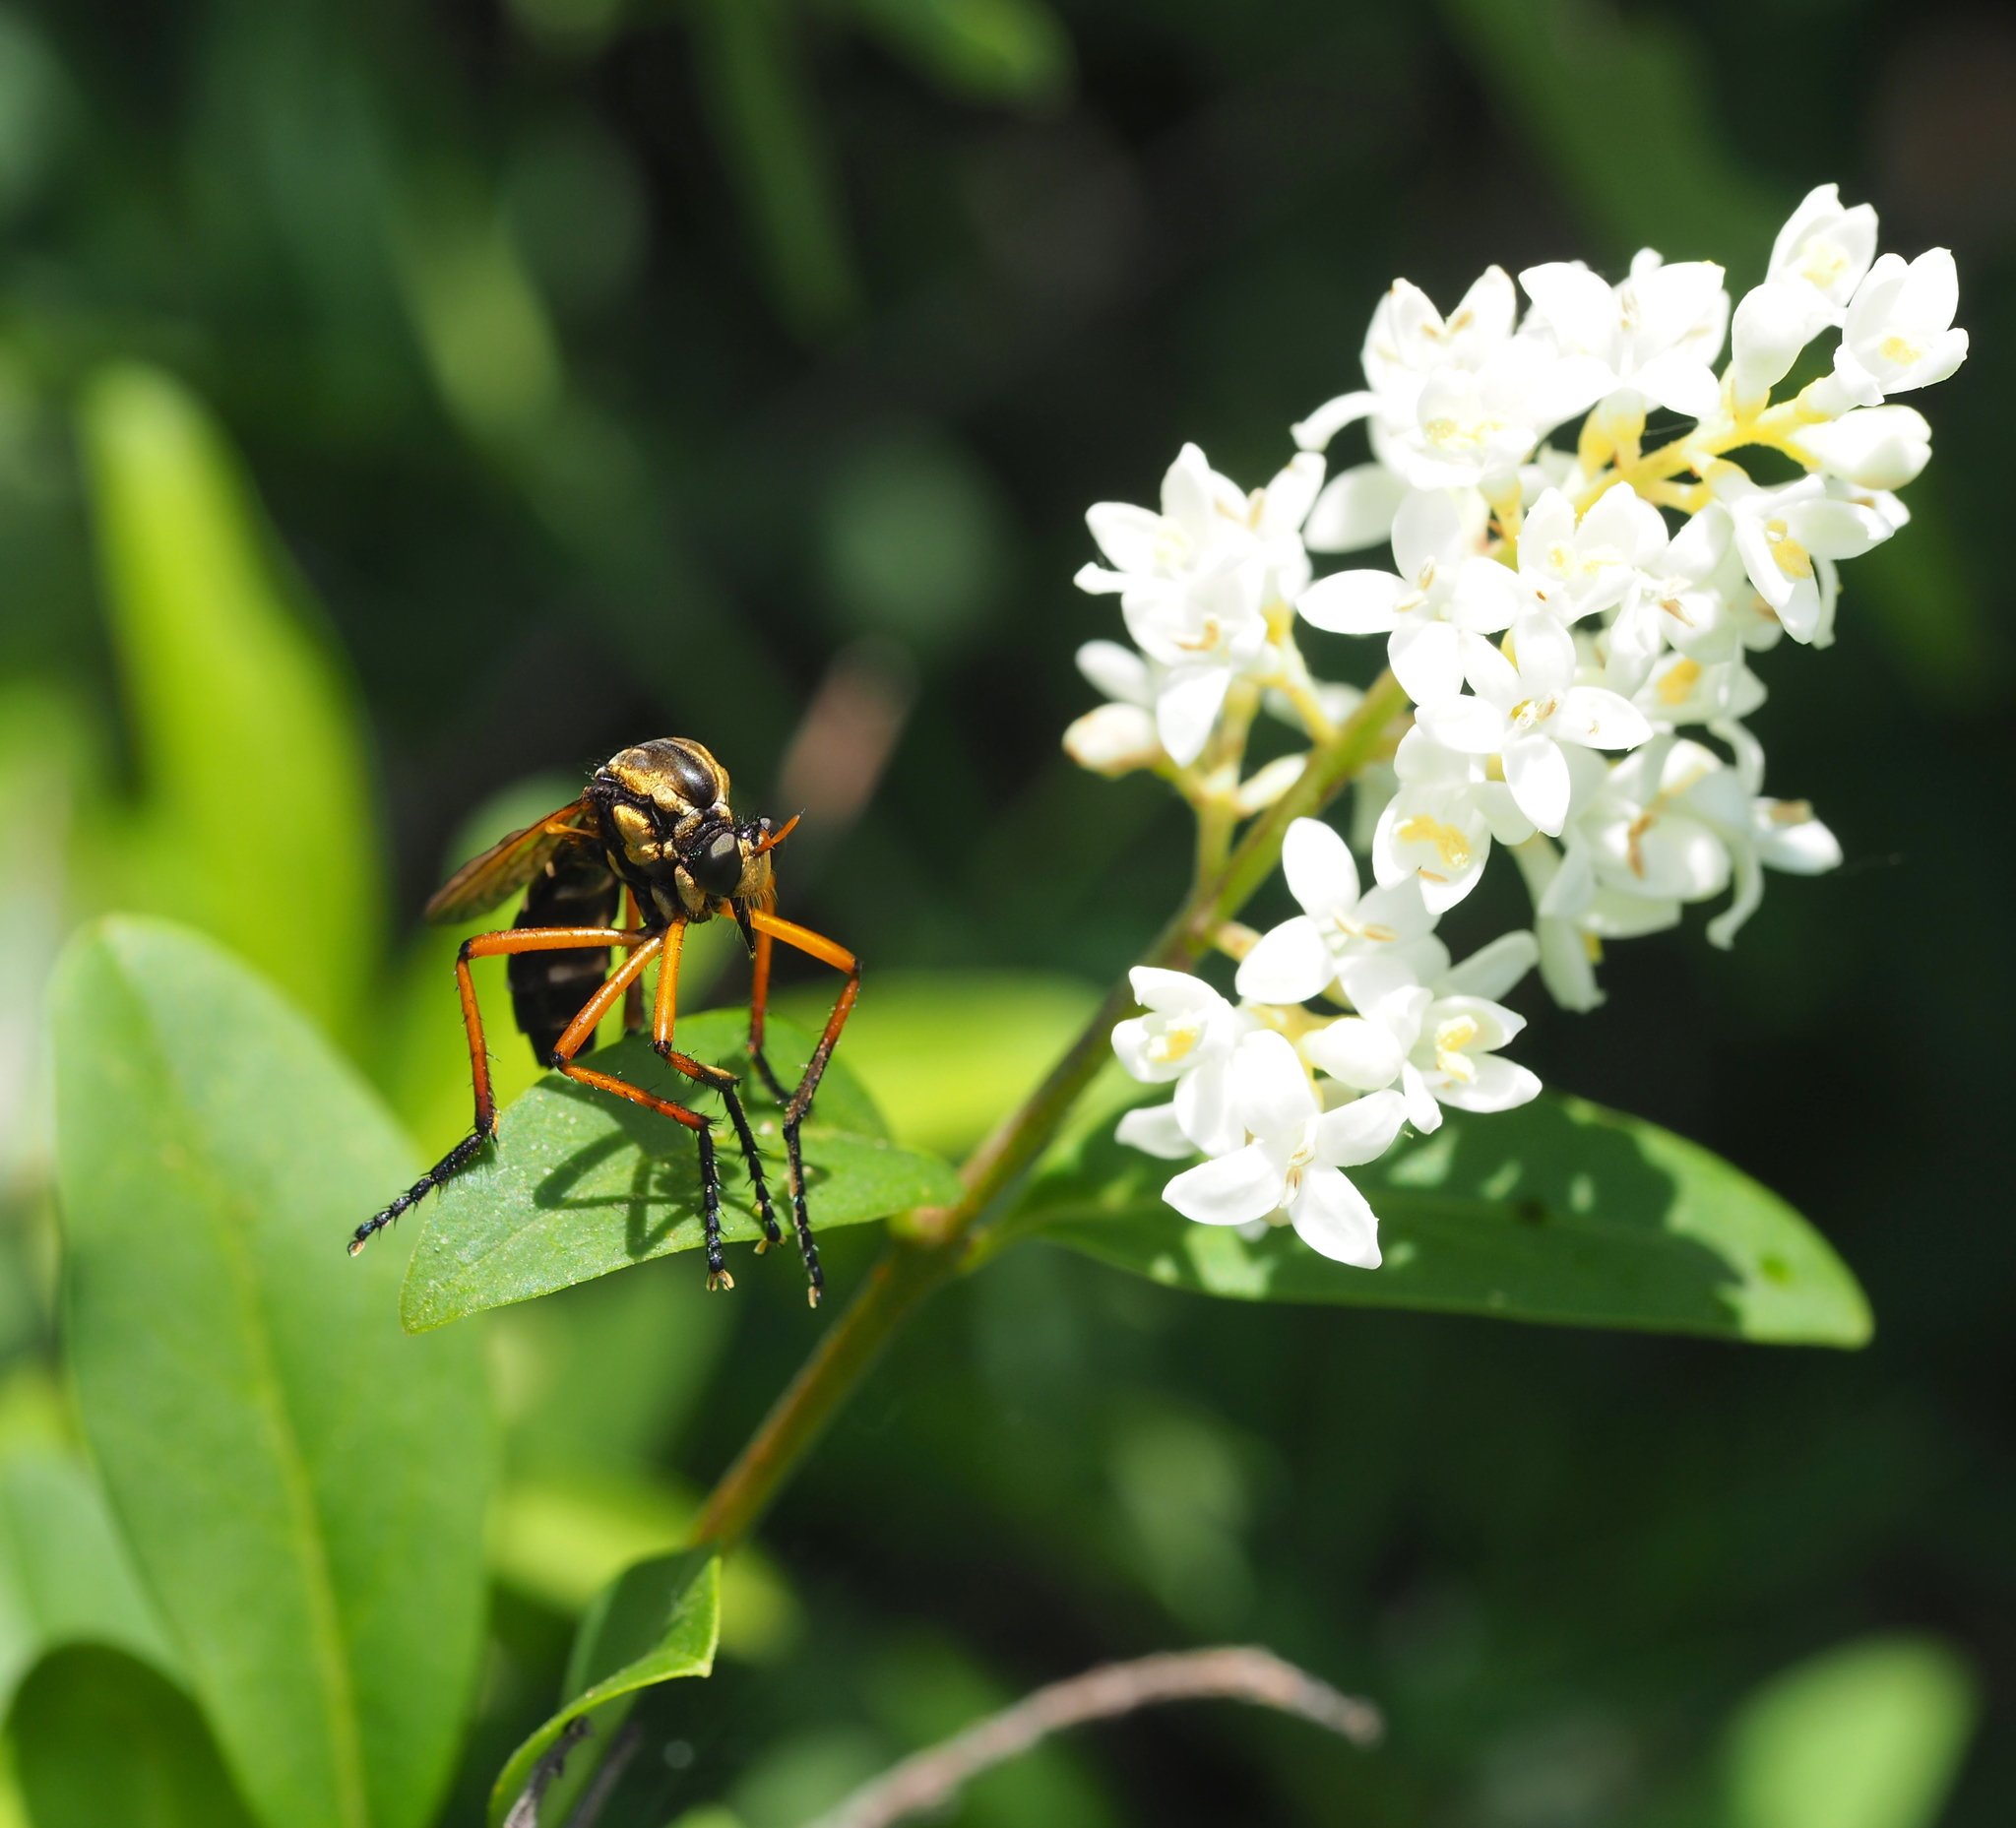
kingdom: Animalia
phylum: Arthropoda
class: Insecta
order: Diptera
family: Asilidae
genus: Molobratia
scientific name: Molobratia teutona
